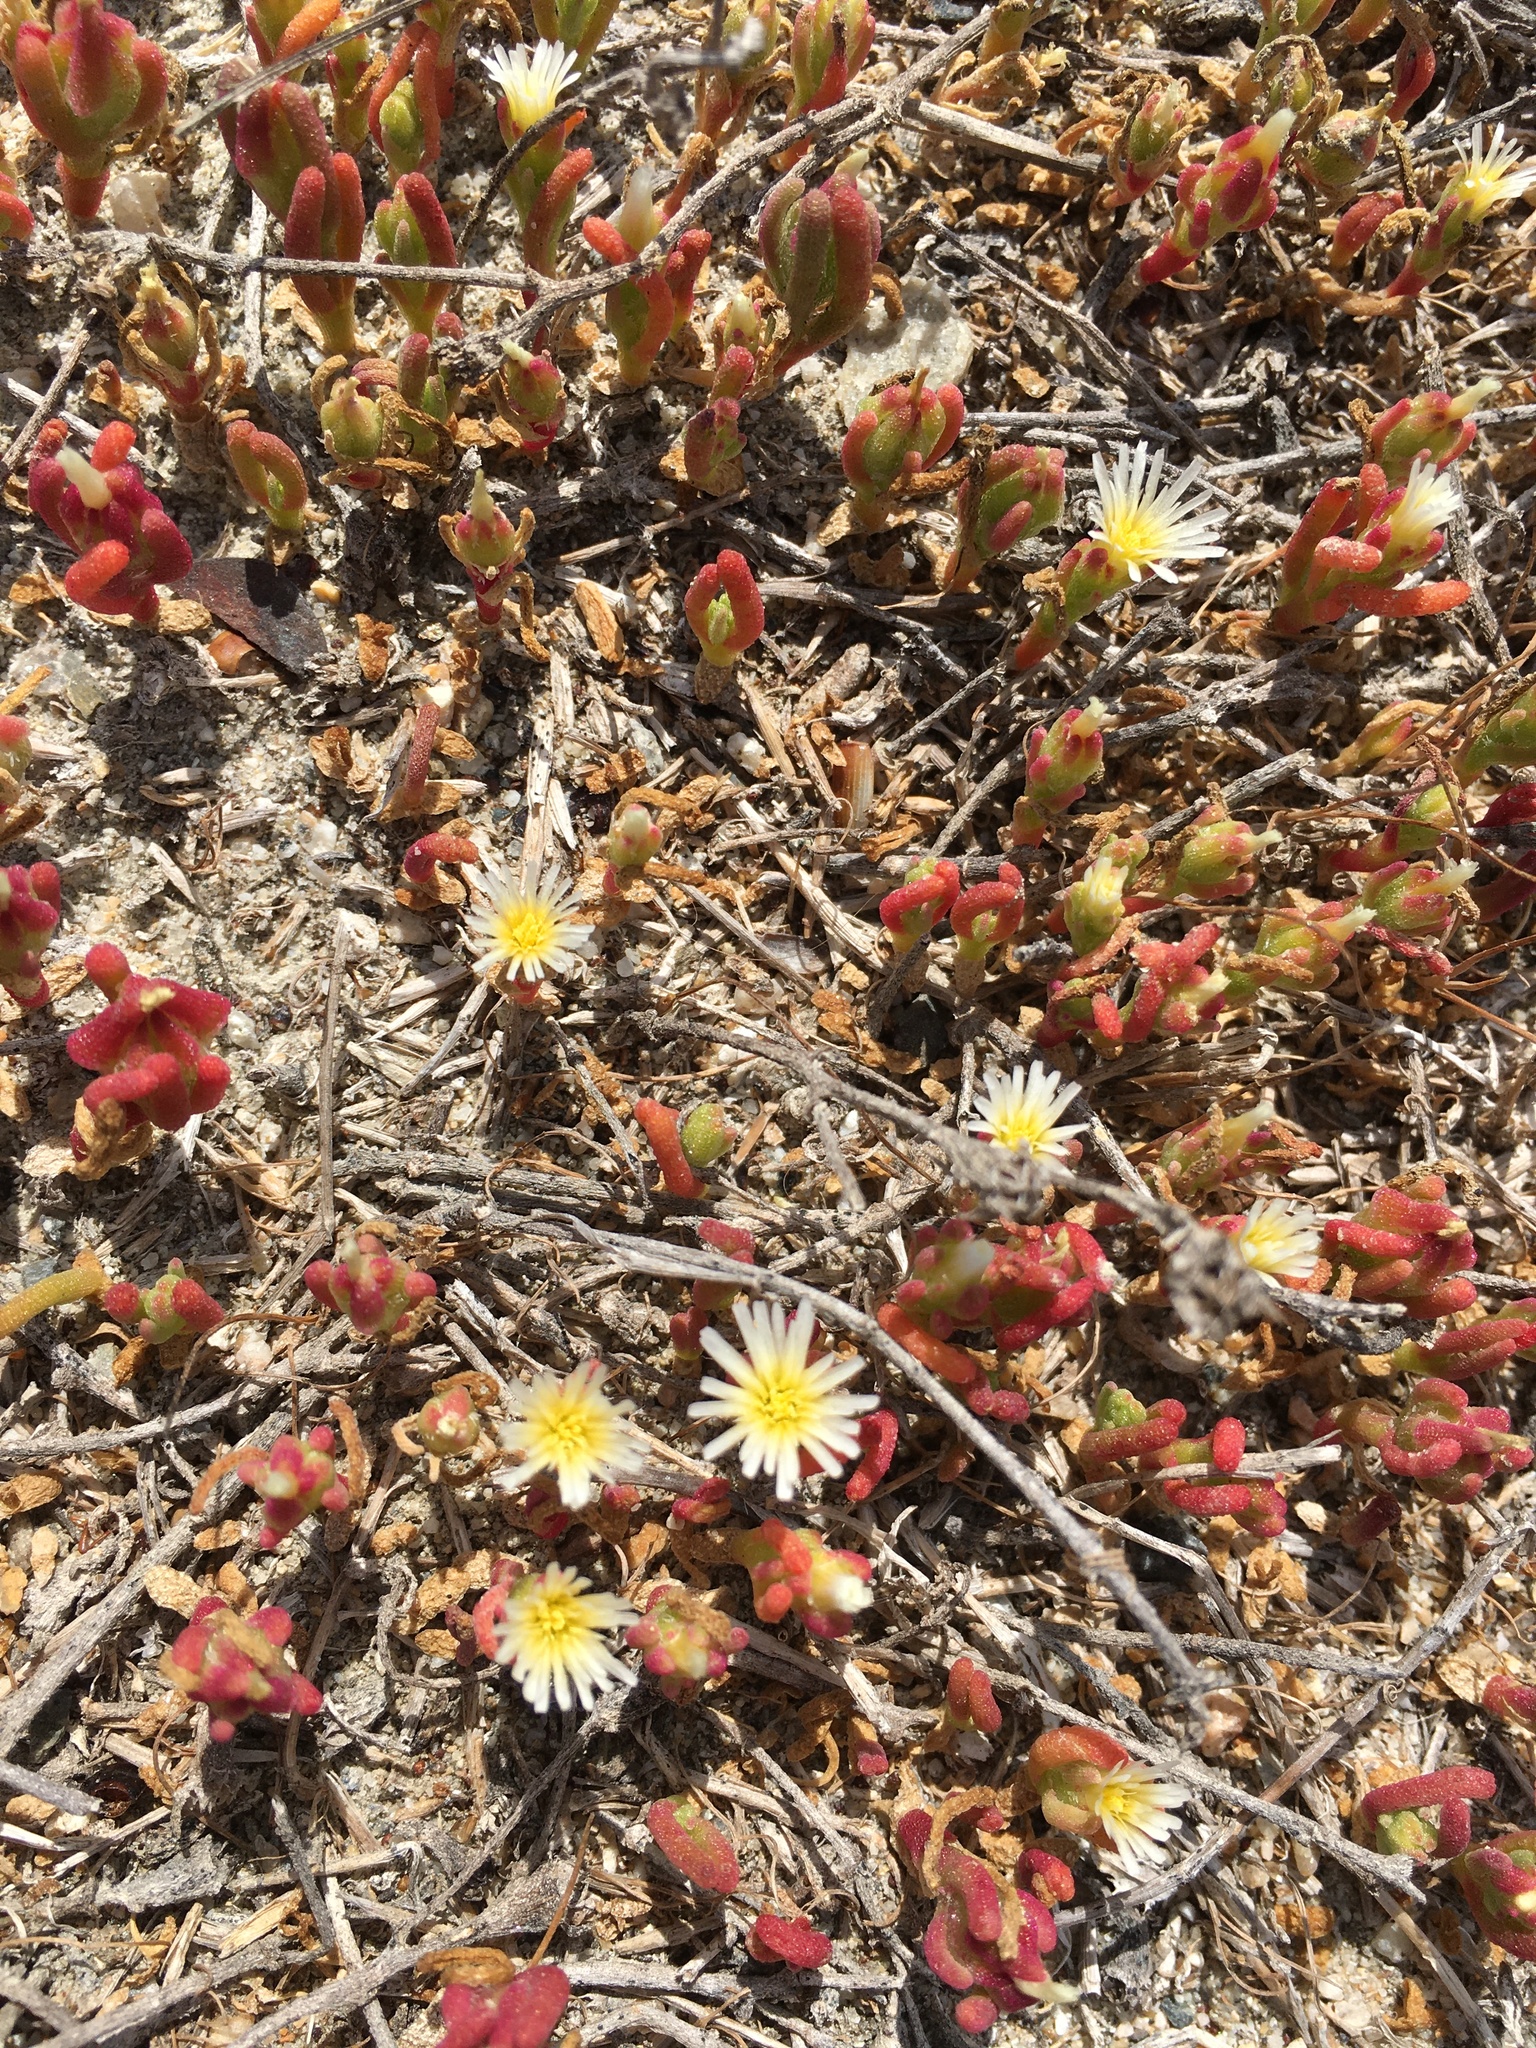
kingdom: Plantae
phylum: Tracheophyta
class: Magnoliopsida
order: Caryophyllales
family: Aizoaceae
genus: Mesembryanthemum
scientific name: Mesembryanthemum nodiflorum
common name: Slenderleaf iceplant
